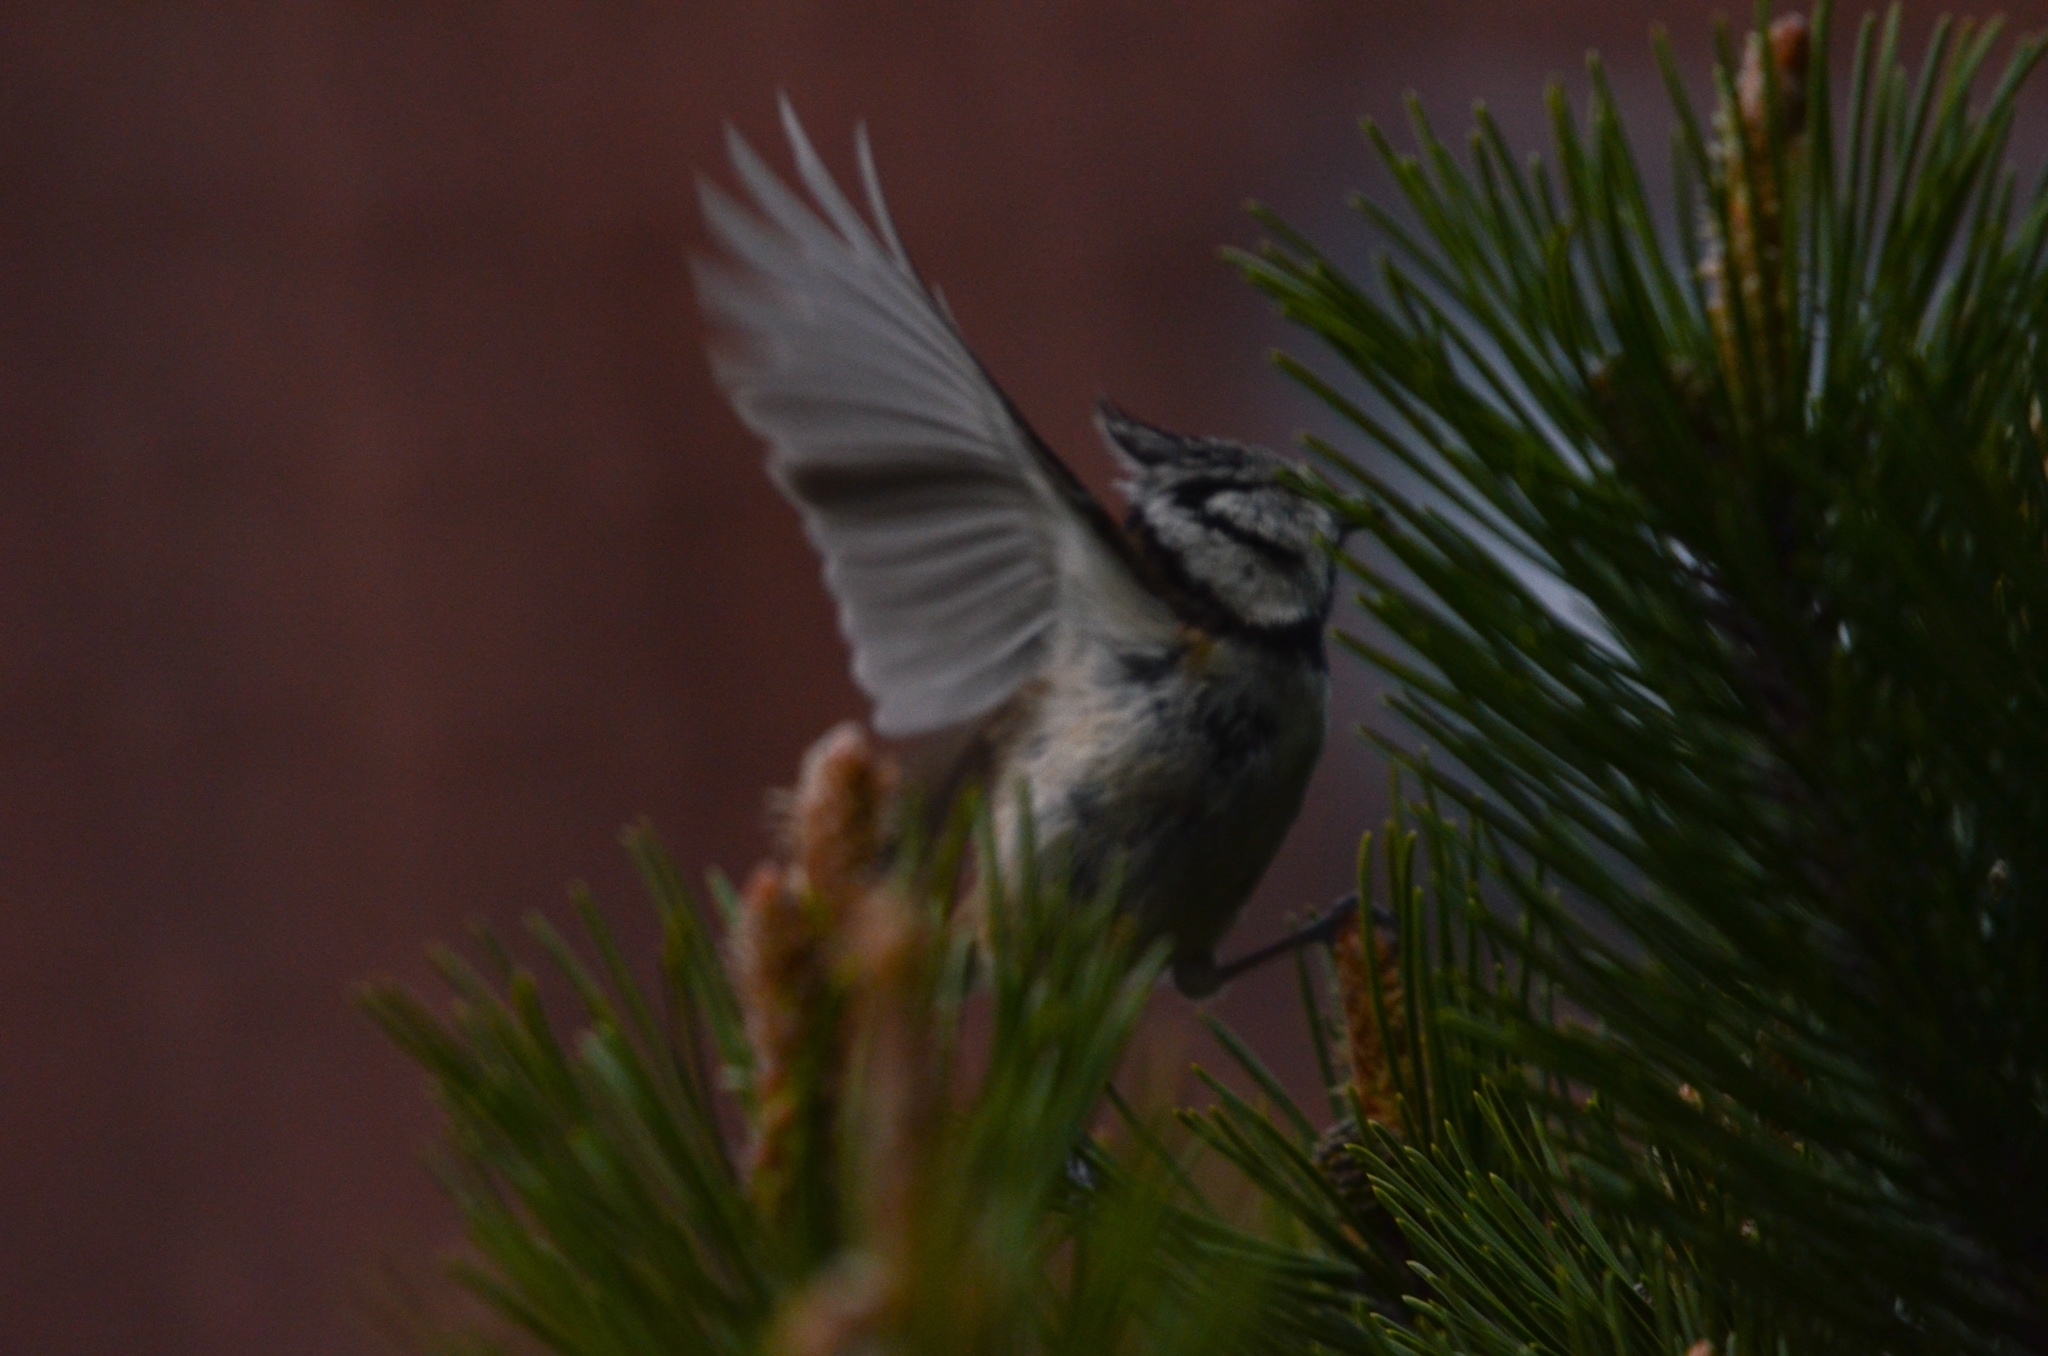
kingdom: Animalia
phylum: Chordata
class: Aves
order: Passeriformes
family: Paridae
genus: Lophophanes
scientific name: Lophophanes cristatus
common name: European crested tit
